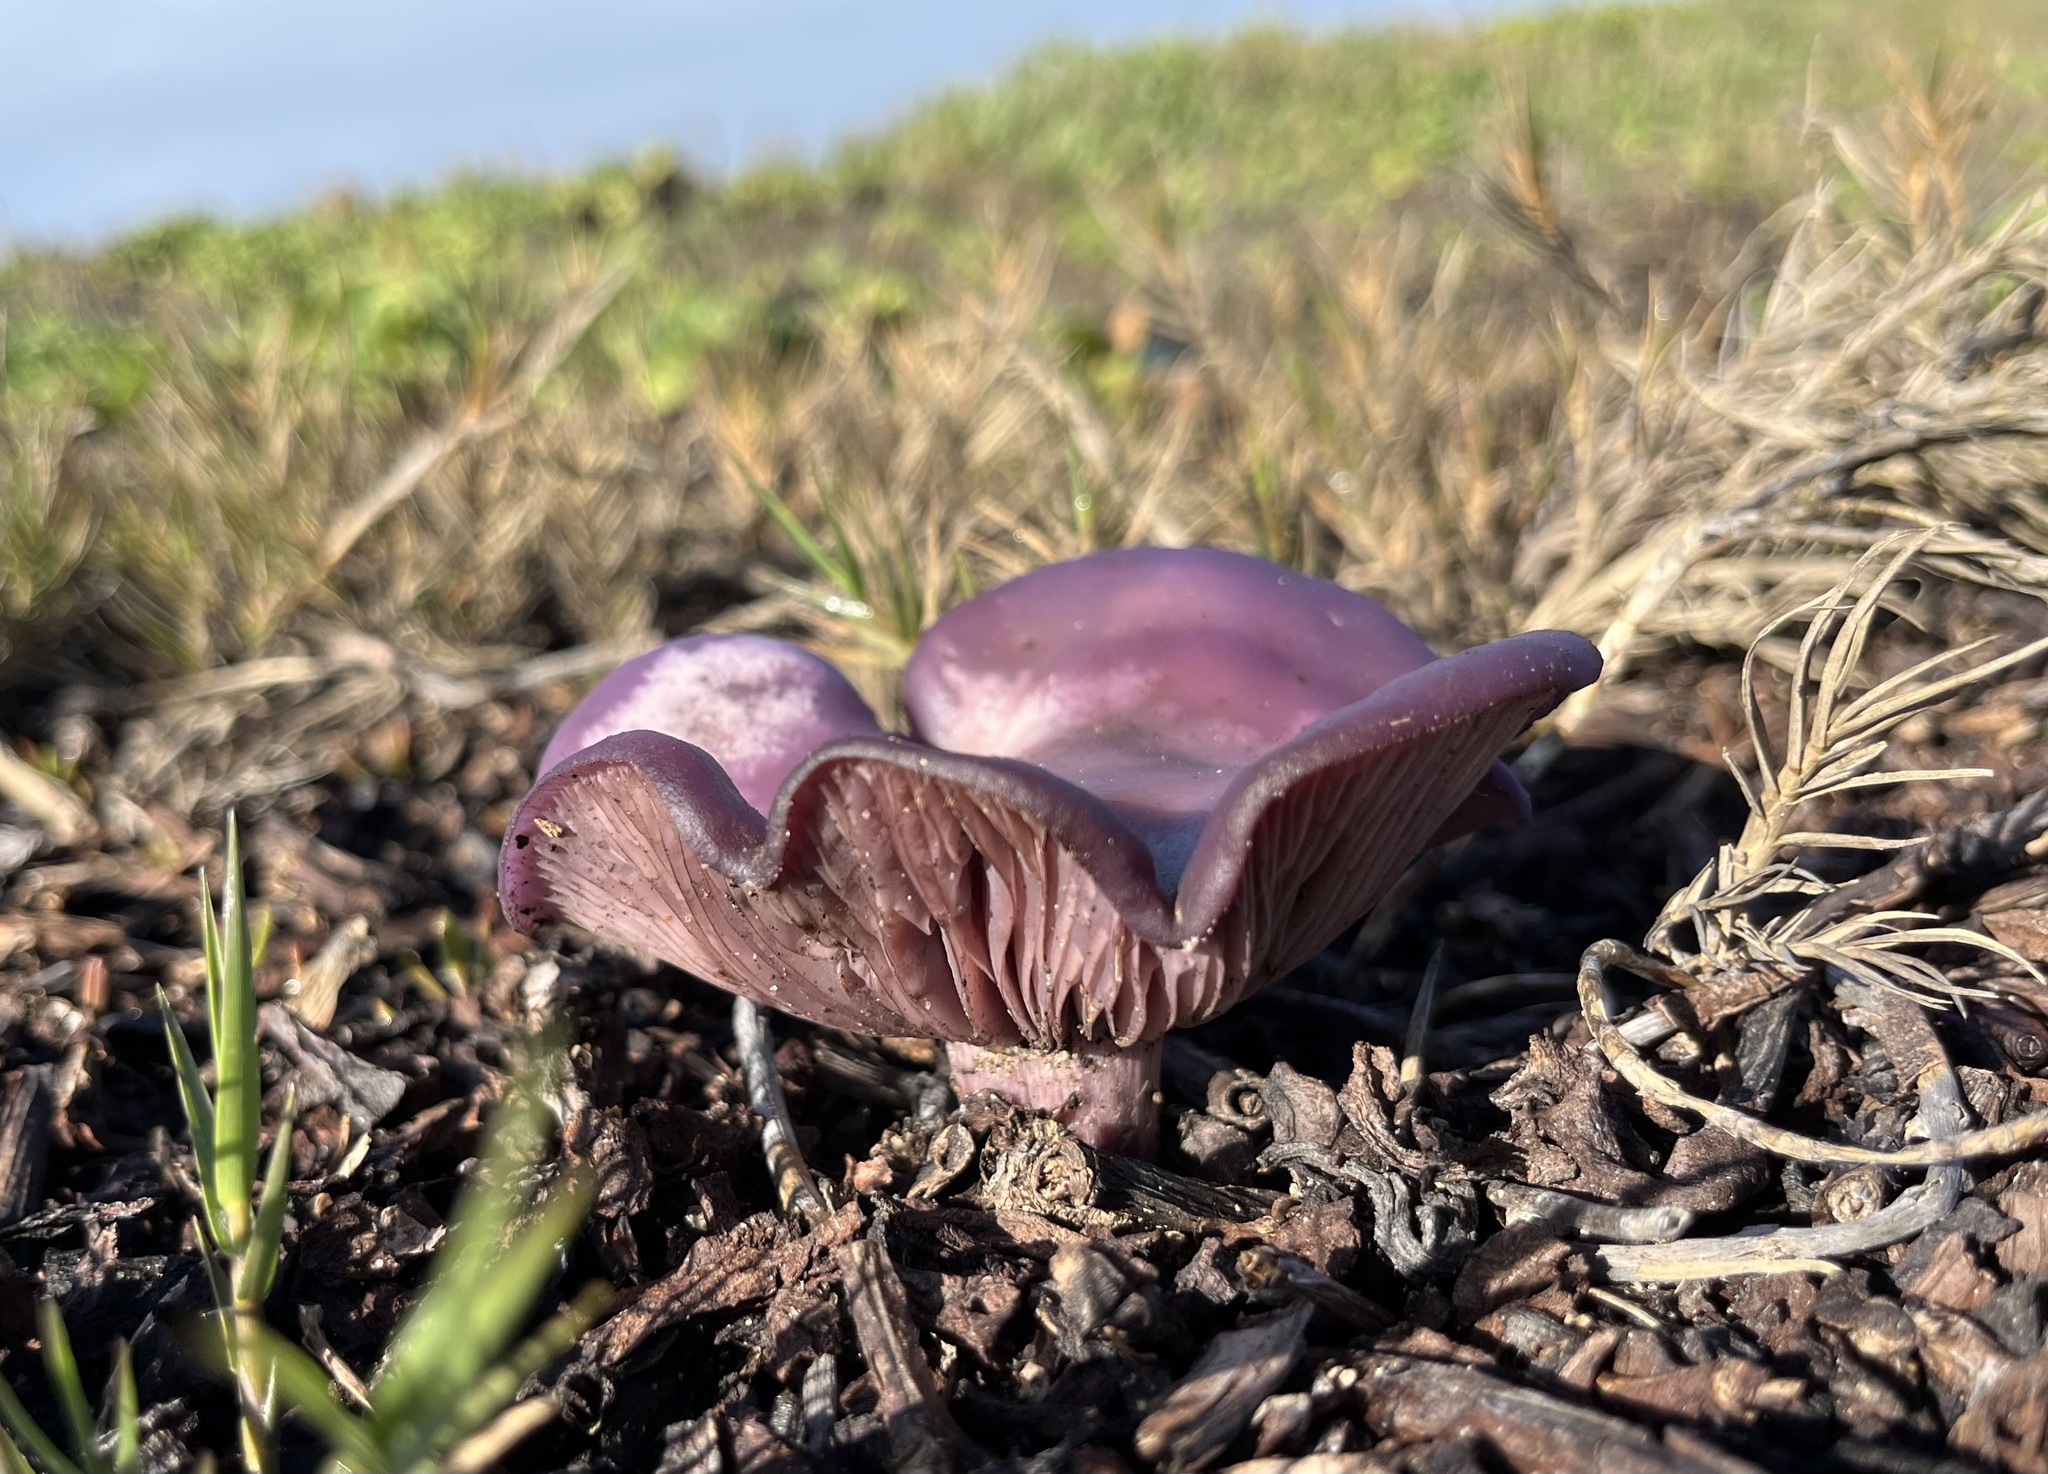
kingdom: Fungi
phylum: Basidiomycota
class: Agaricomycetes
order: Agaricales
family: Tricholomataceae
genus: Collybia
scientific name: Collybia
